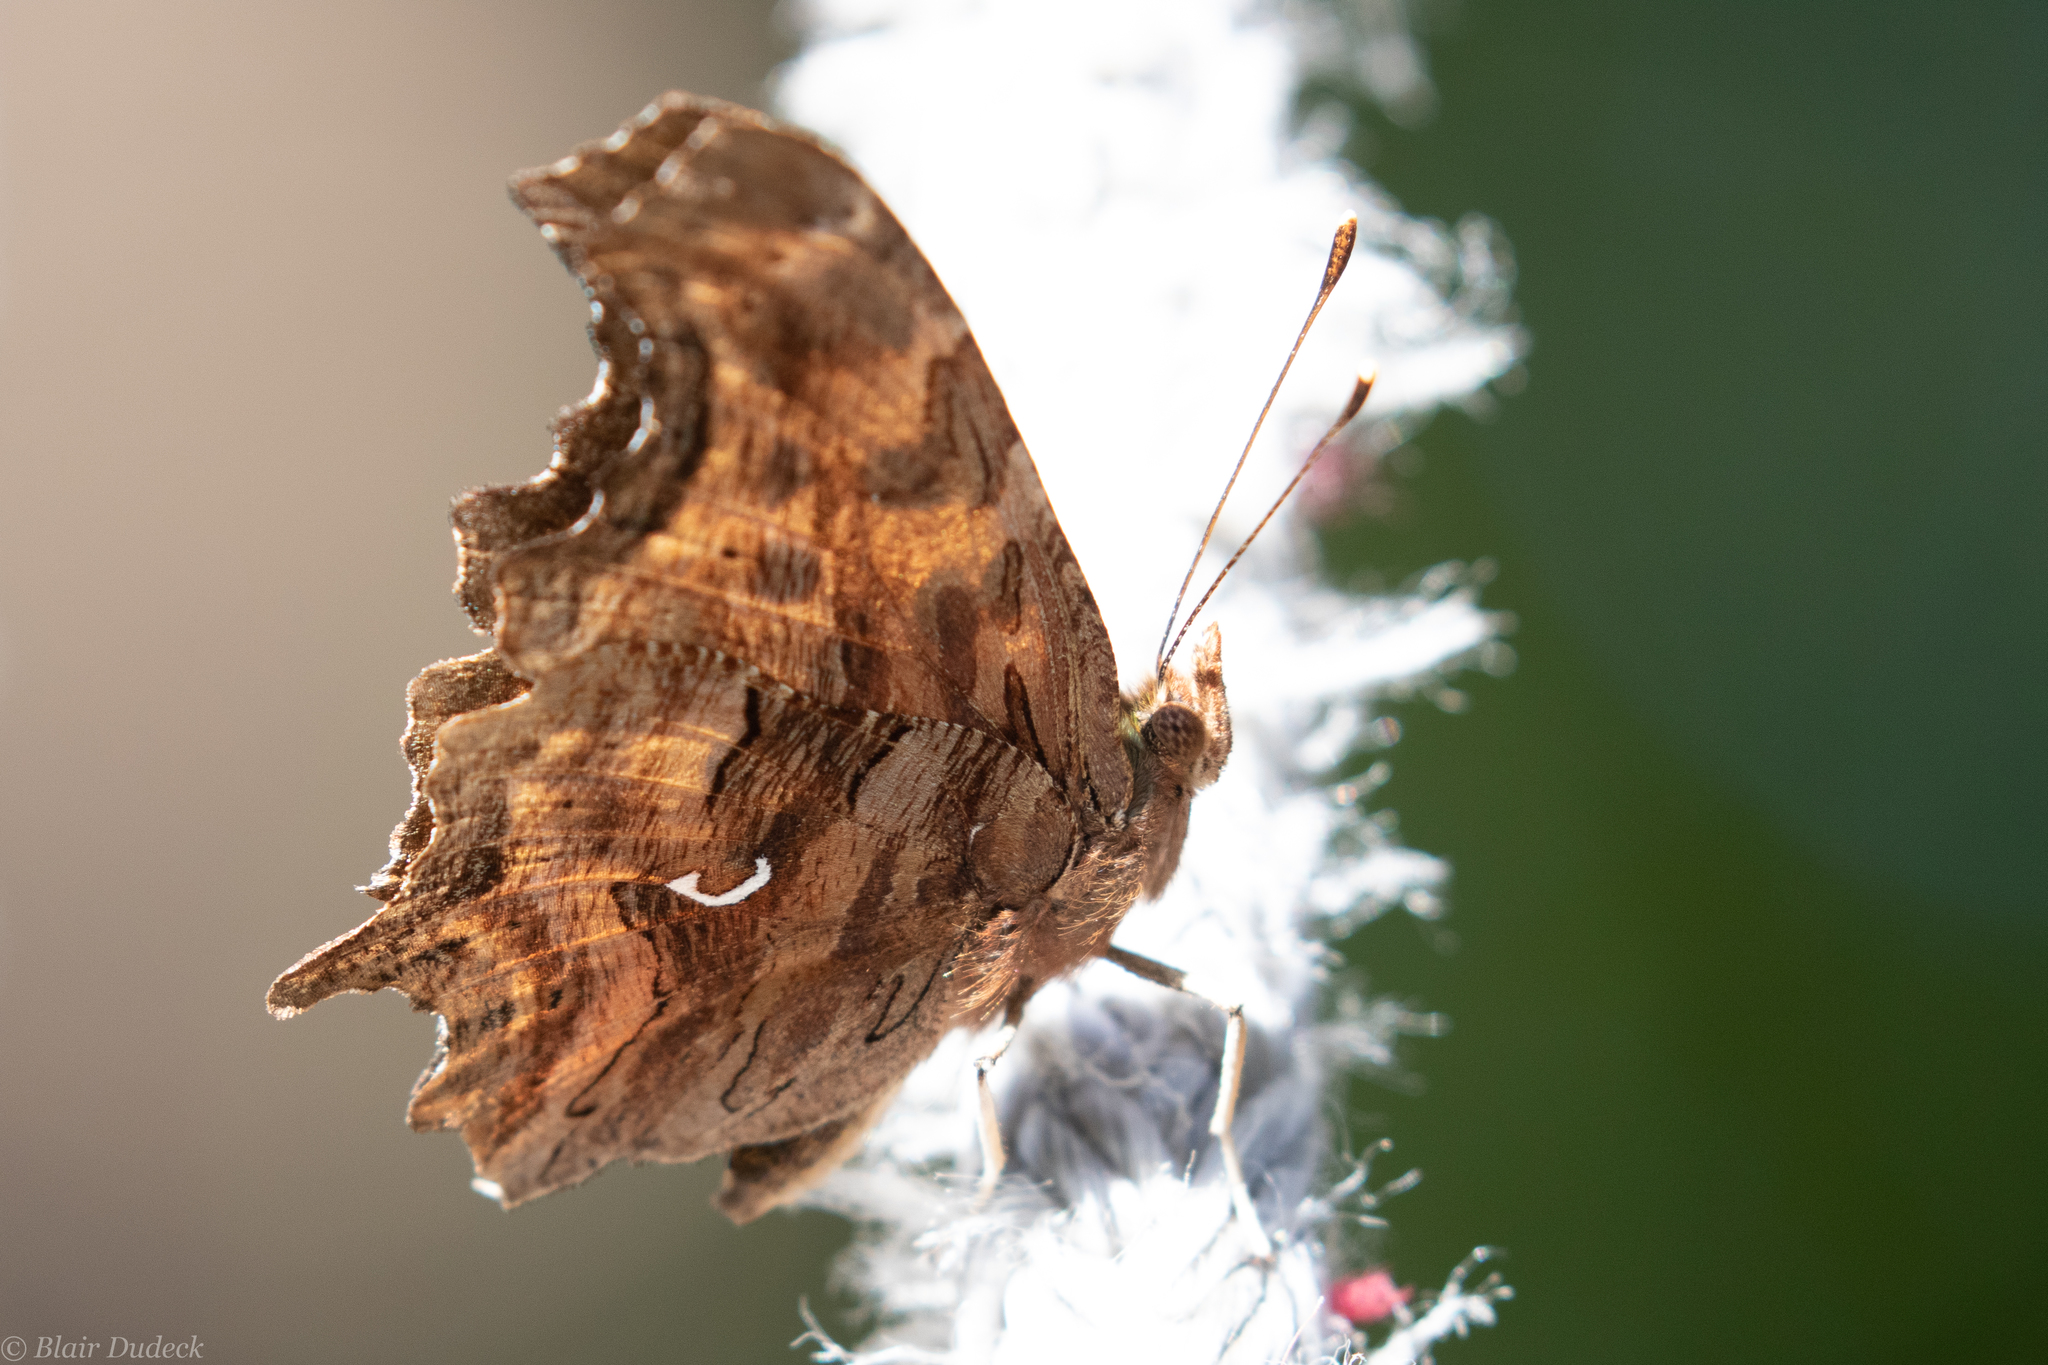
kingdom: Animalia
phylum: Arthropoda
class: Insecta
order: Lepidoptera
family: Nymphalidae
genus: Polygonia
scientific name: Polygonia satyrus
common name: Satyr angle wing
